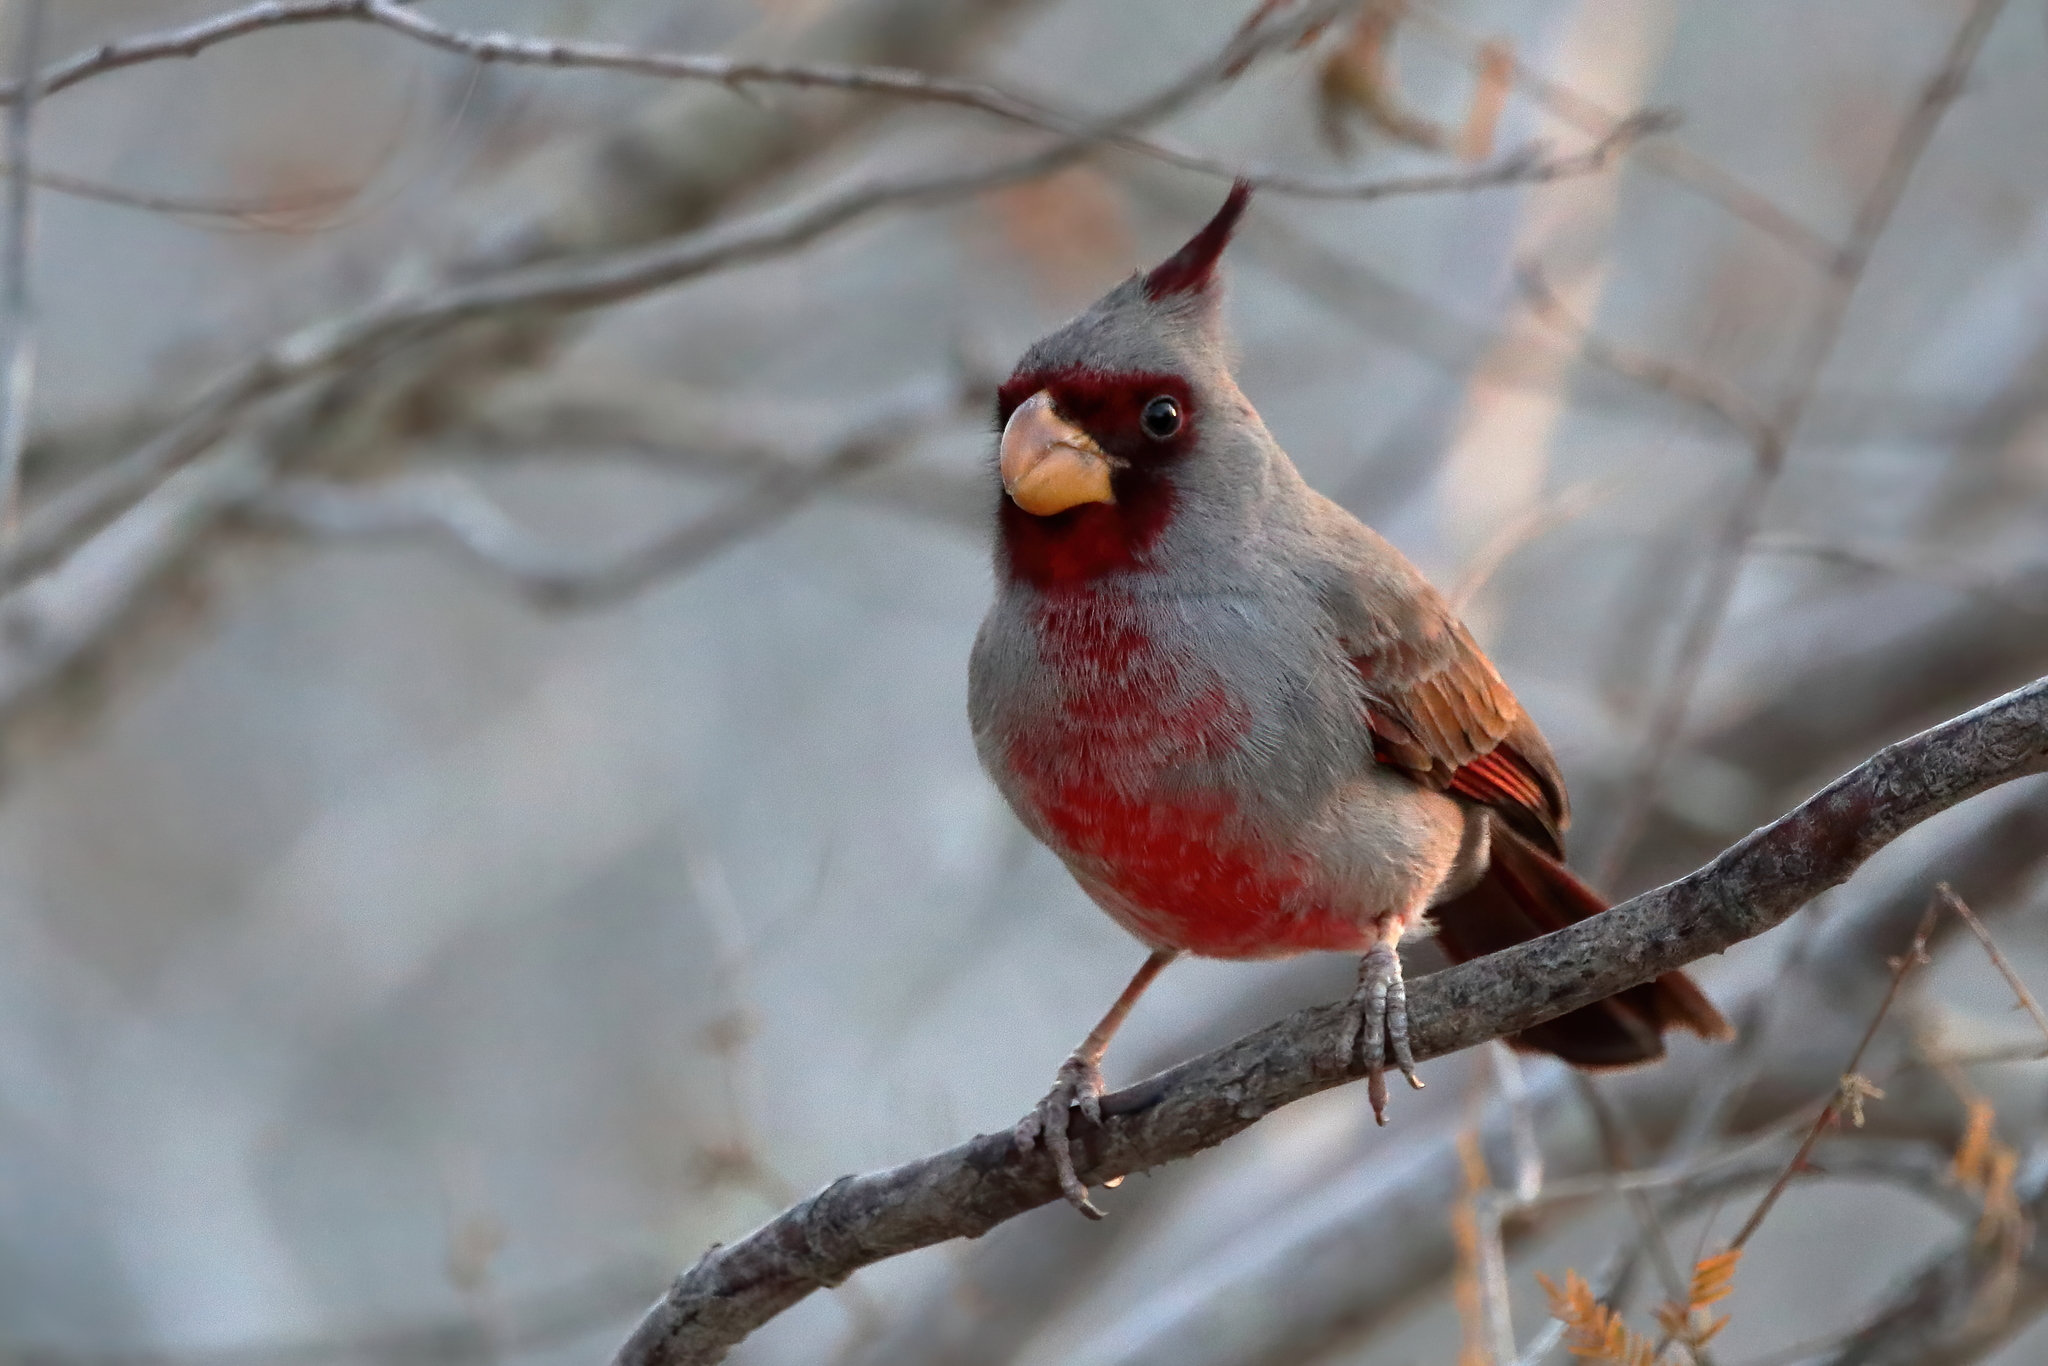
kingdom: Animalia
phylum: Chordata
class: Aves
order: Passeriformes
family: Cardinalidae
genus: Cardinalis
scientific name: Cardinalis sinuatus
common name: Pyrrhuloxia
